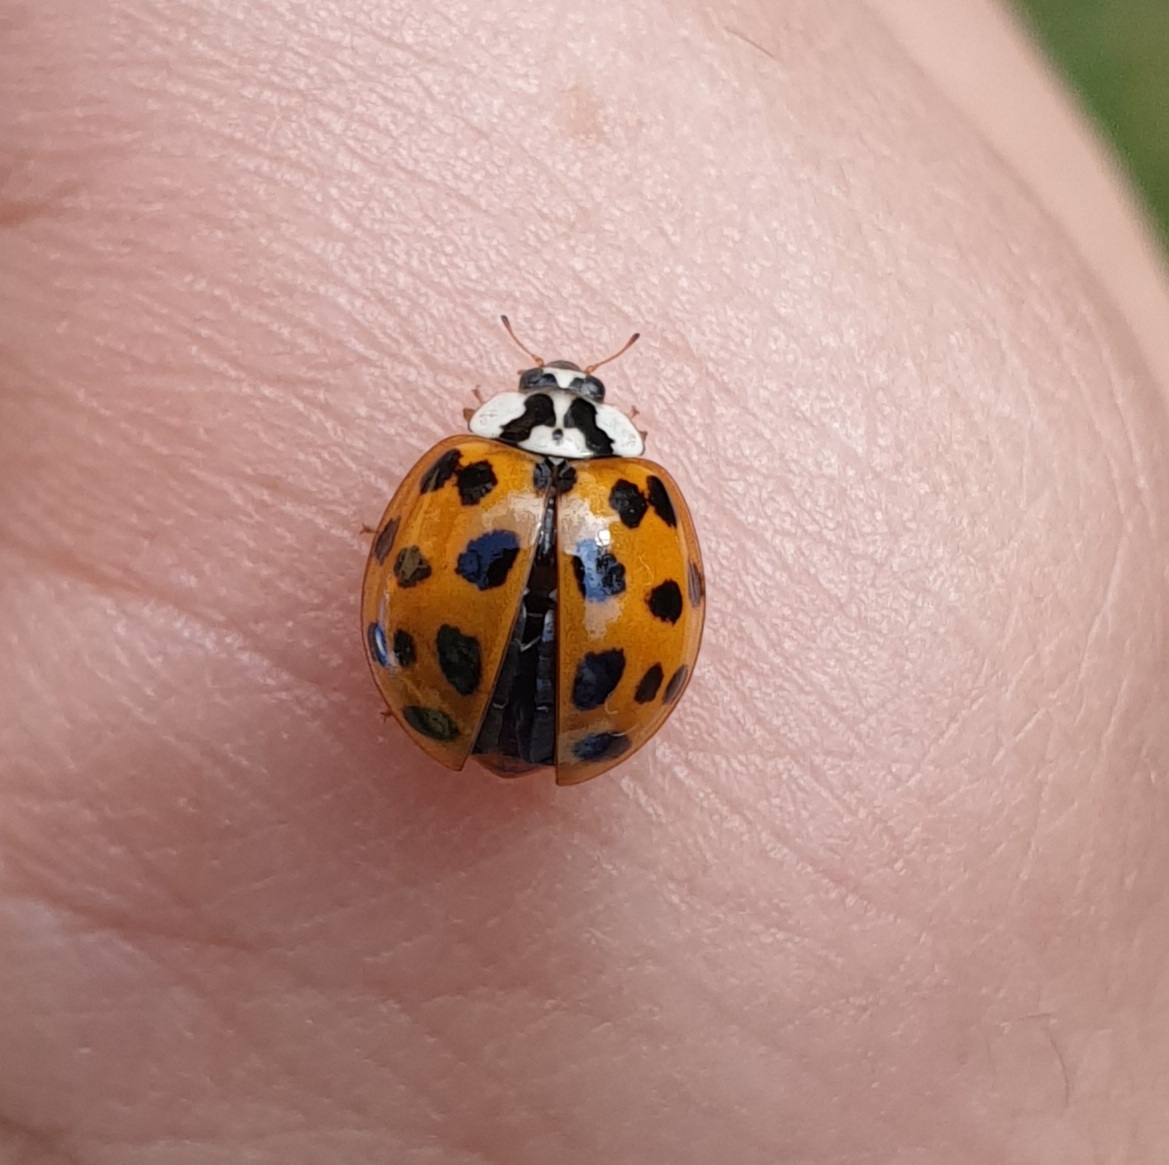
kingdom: Animalia
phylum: Arthropoda
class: Insecta
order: Coleoptera
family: Coccinellidae
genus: Harmonia
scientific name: Harmonia axyridis
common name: Harlequin ladybird
